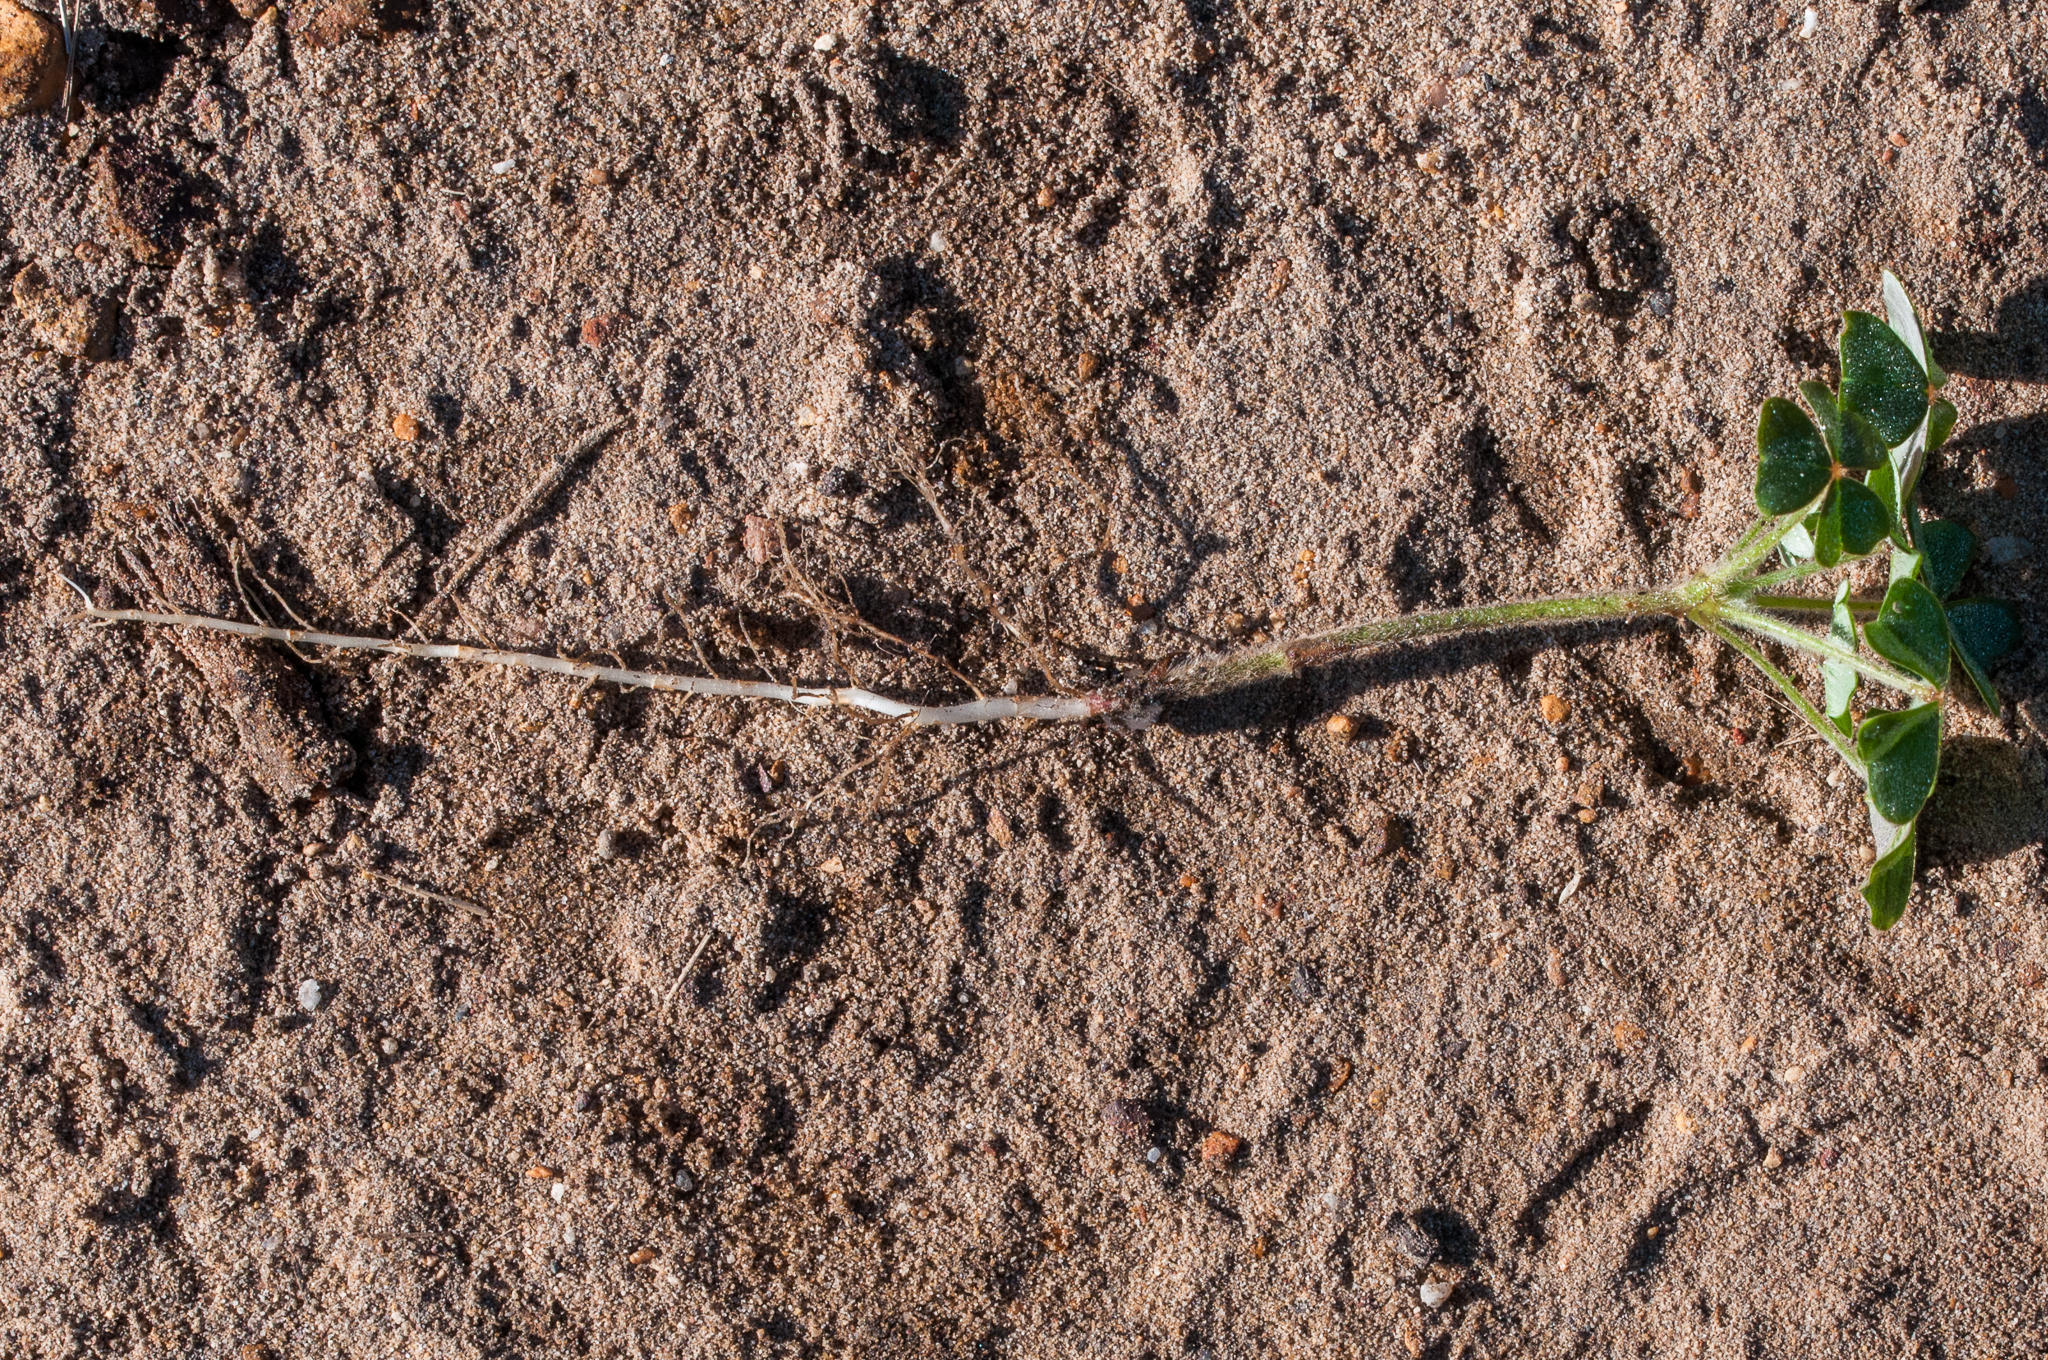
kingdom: Plantae
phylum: Tracheophyta
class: Magnoliopsida
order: Oxalidales
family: Oxalidaceae
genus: Oxalis
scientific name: Oxalis lanata
